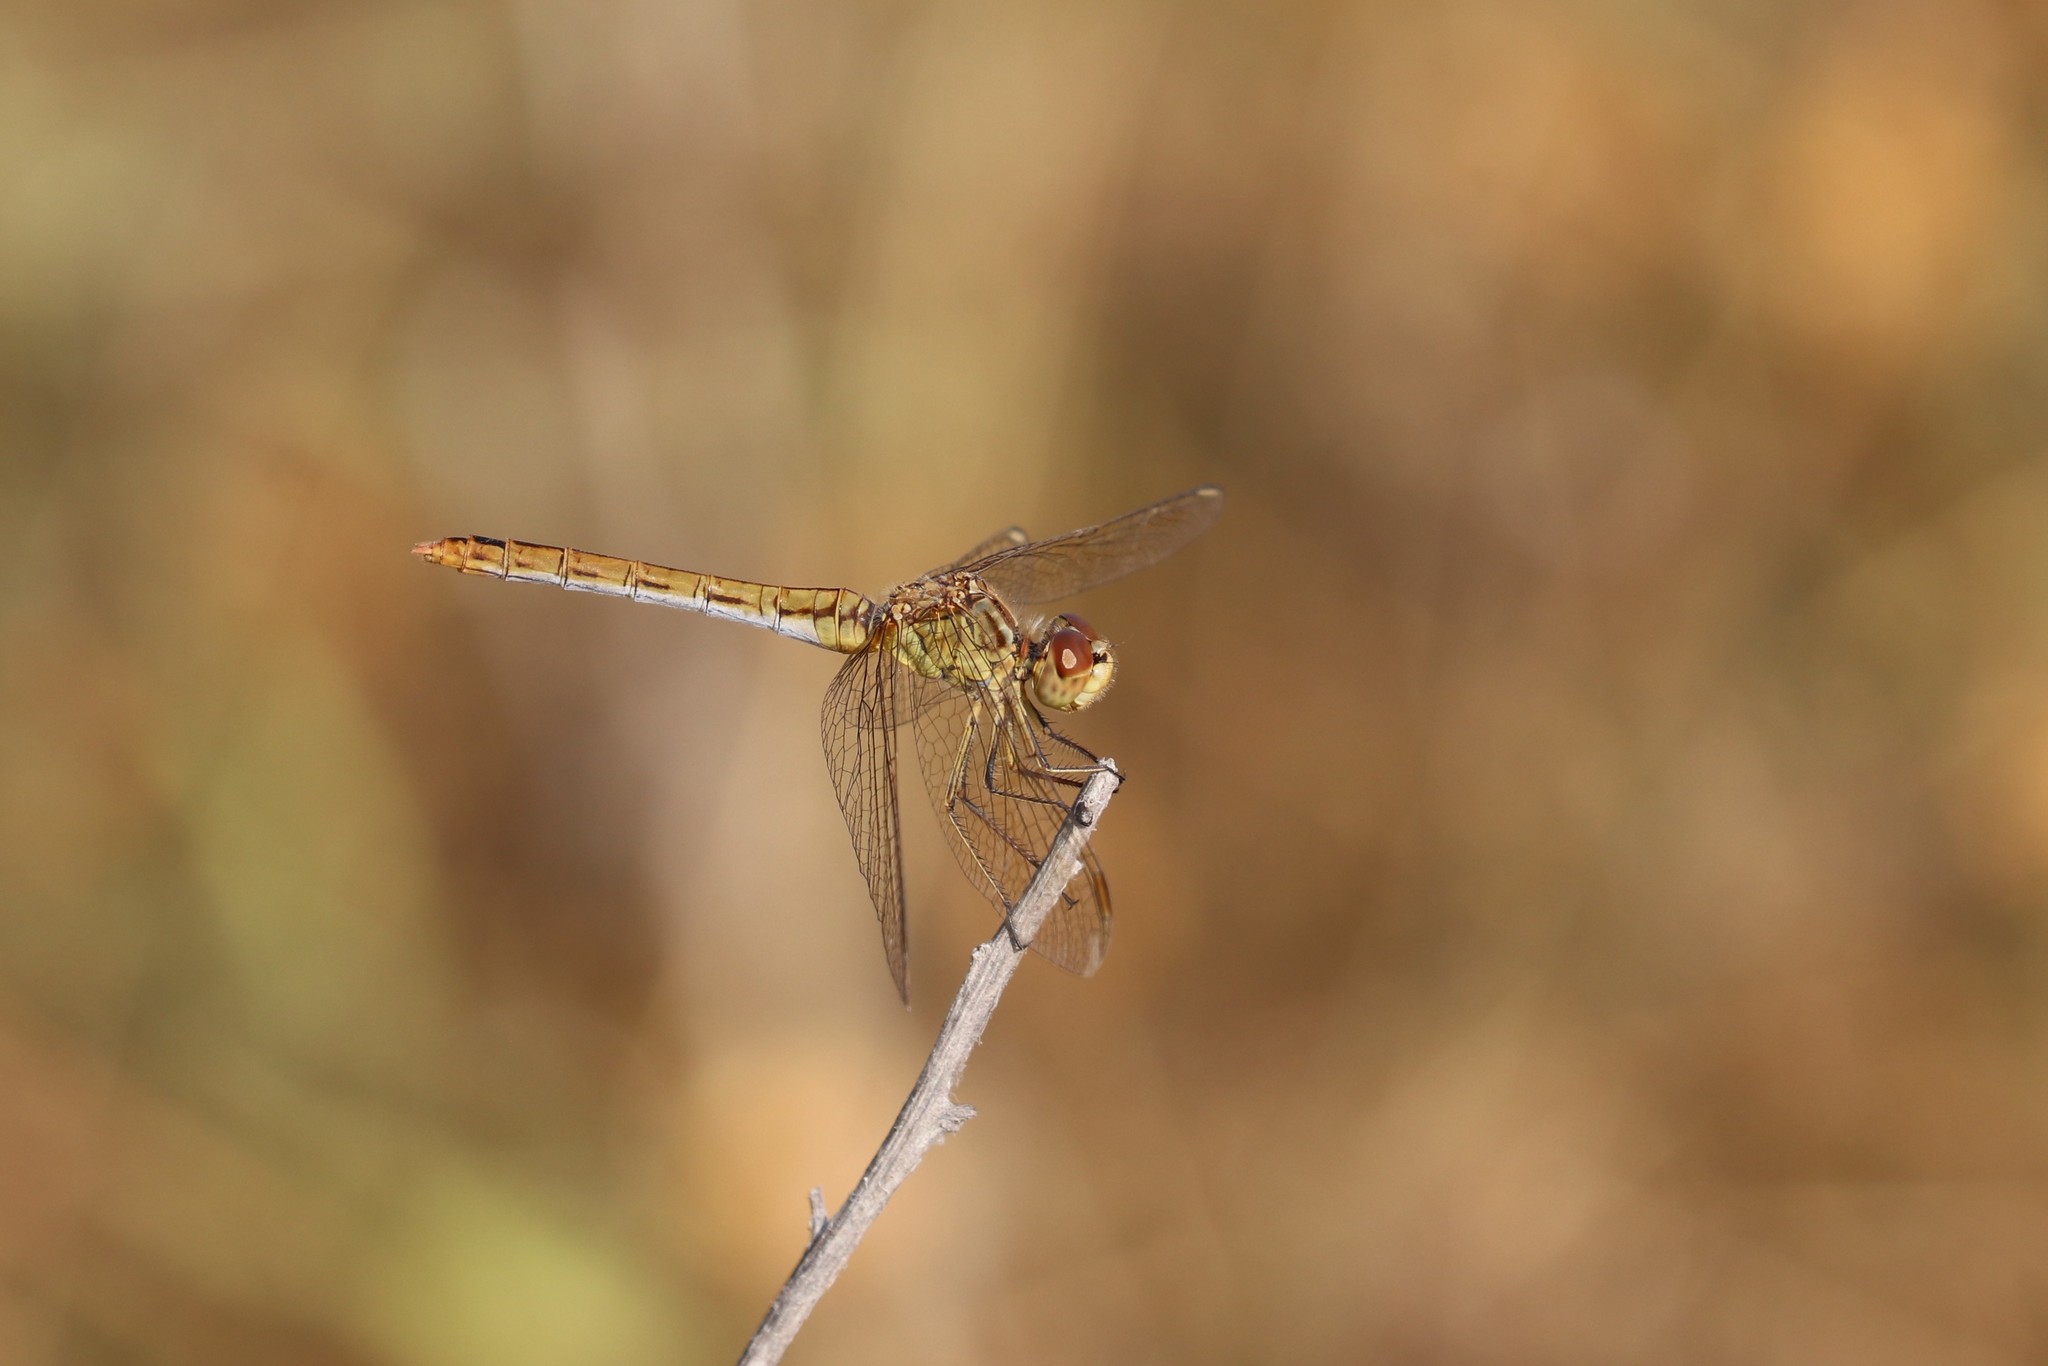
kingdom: Animalia
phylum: Arthropoda
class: Insecta
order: Odonata
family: Libellulidae
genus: Sympetrum
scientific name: Sympetrum meridionale
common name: Southern darter
